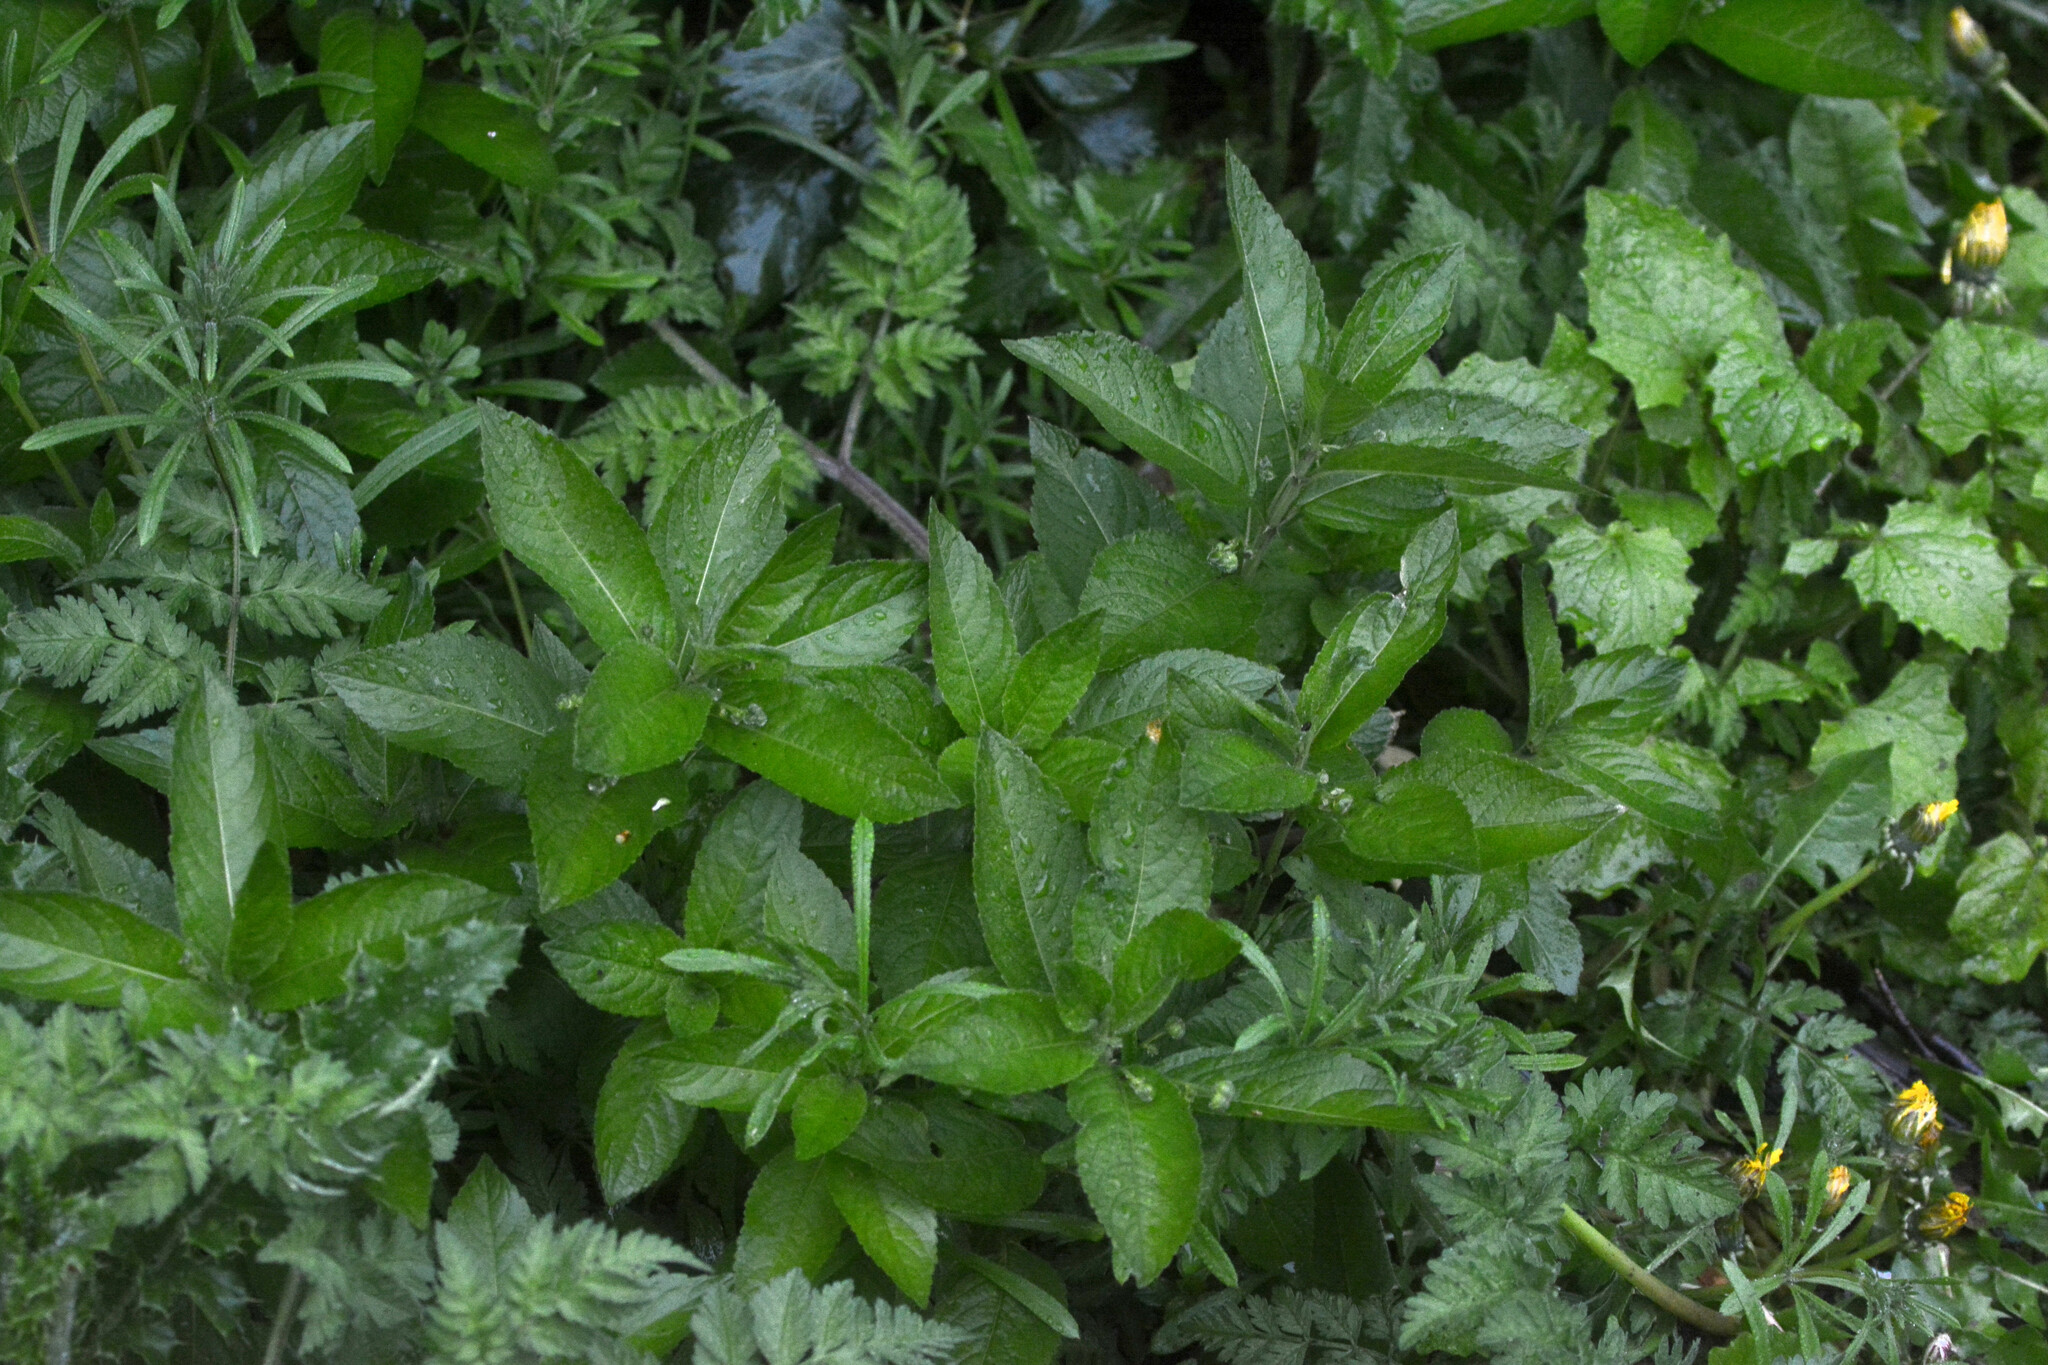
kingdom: Plantae
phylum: Tracheophyta
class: Magnoliopsida
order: Malpighiales
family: Euphorbiaceae
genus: Mercurialis
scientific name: Mercurialis perennis
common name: Dog mercury
